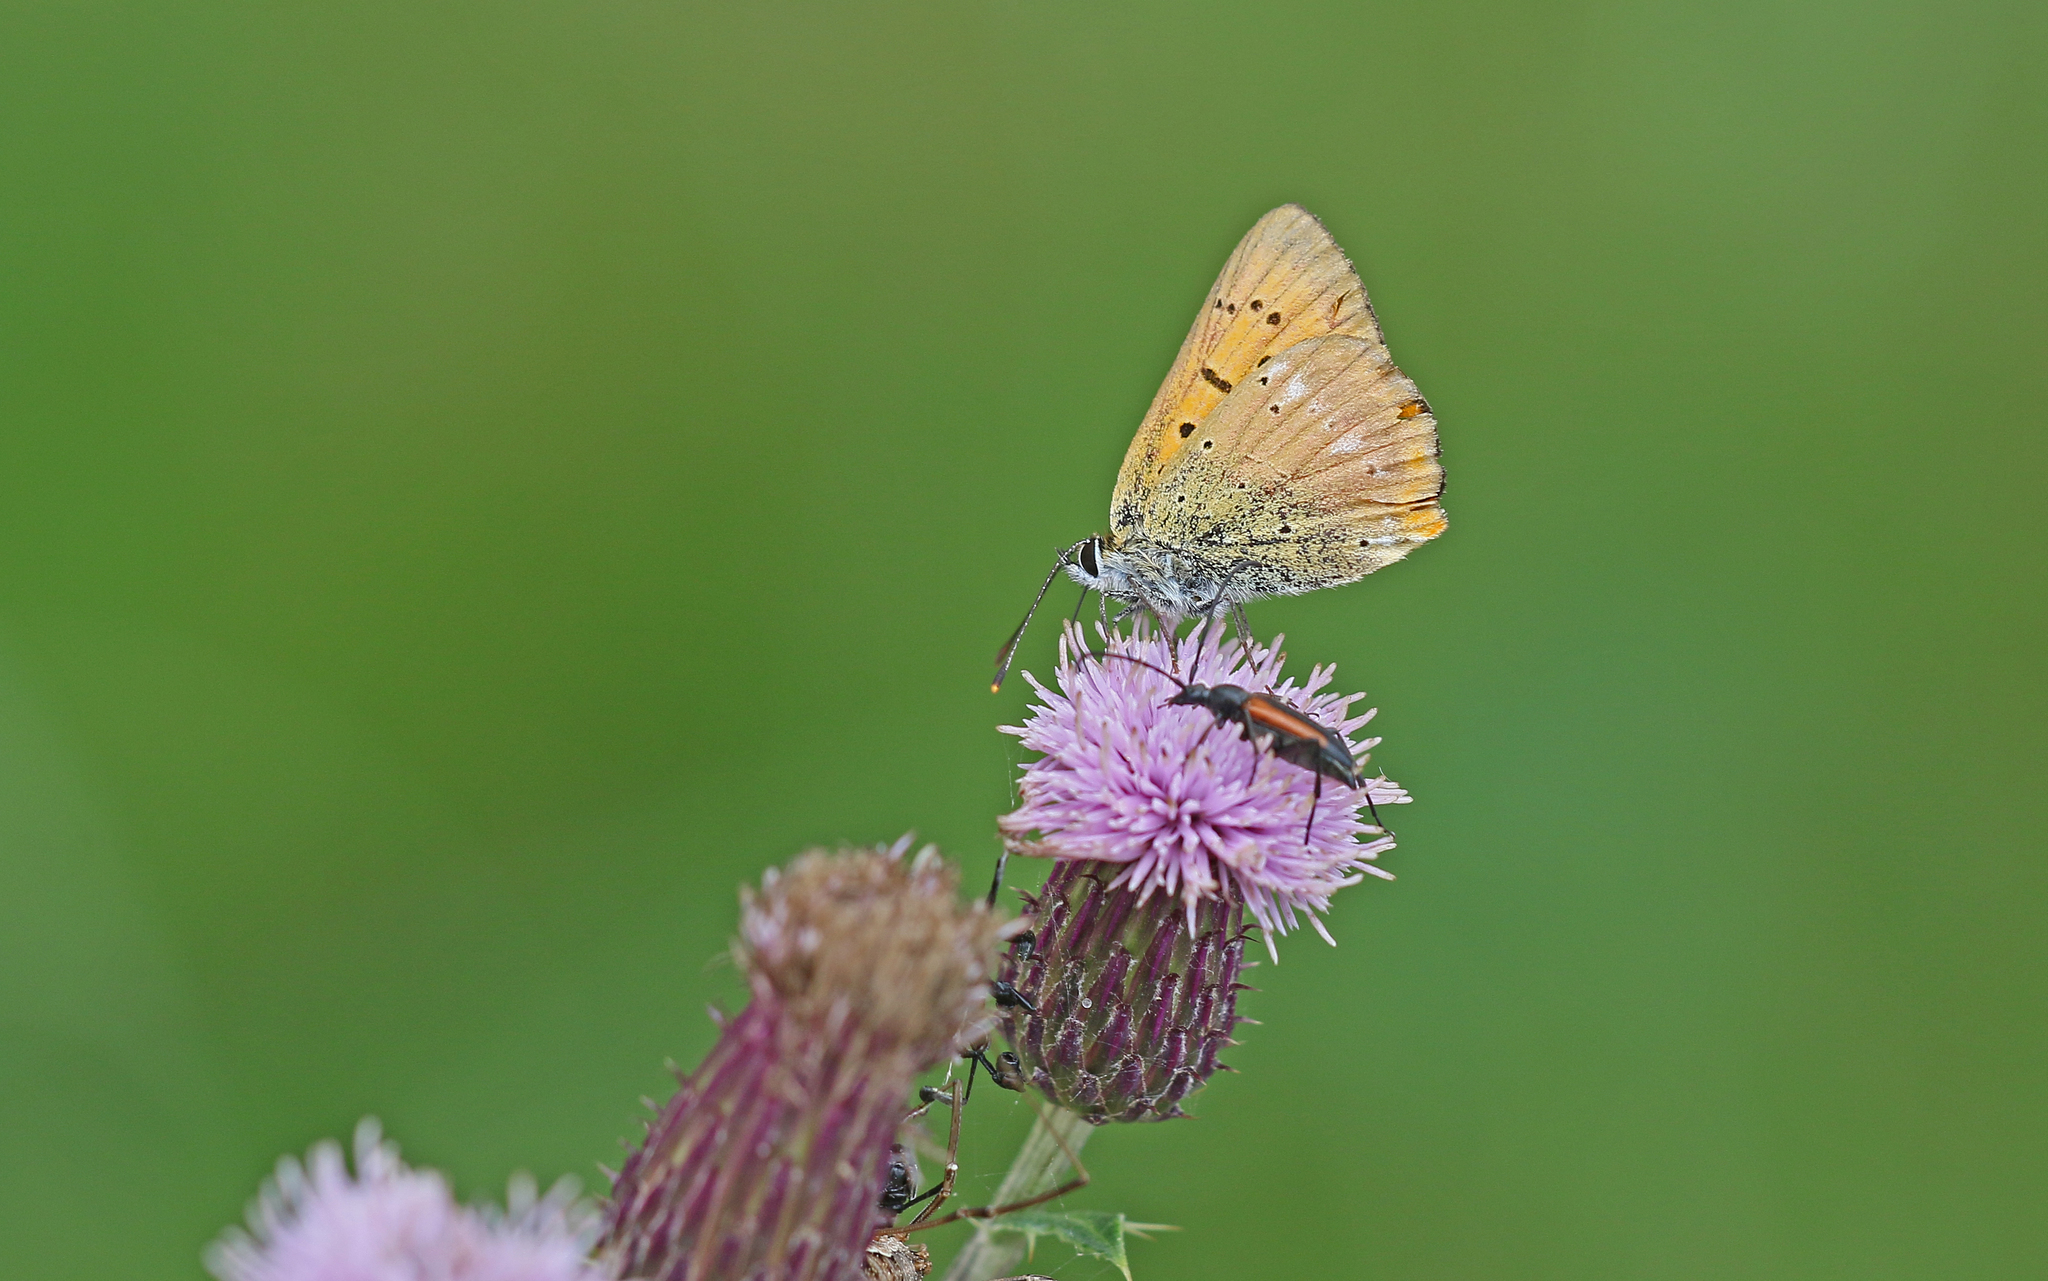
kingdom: Animalia
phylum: Arthropoda
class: Insecta
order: Lepidoptera
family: Lycaenidae
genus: Lycaena
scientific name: Lycaena virgaureae
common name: Scarce copper
